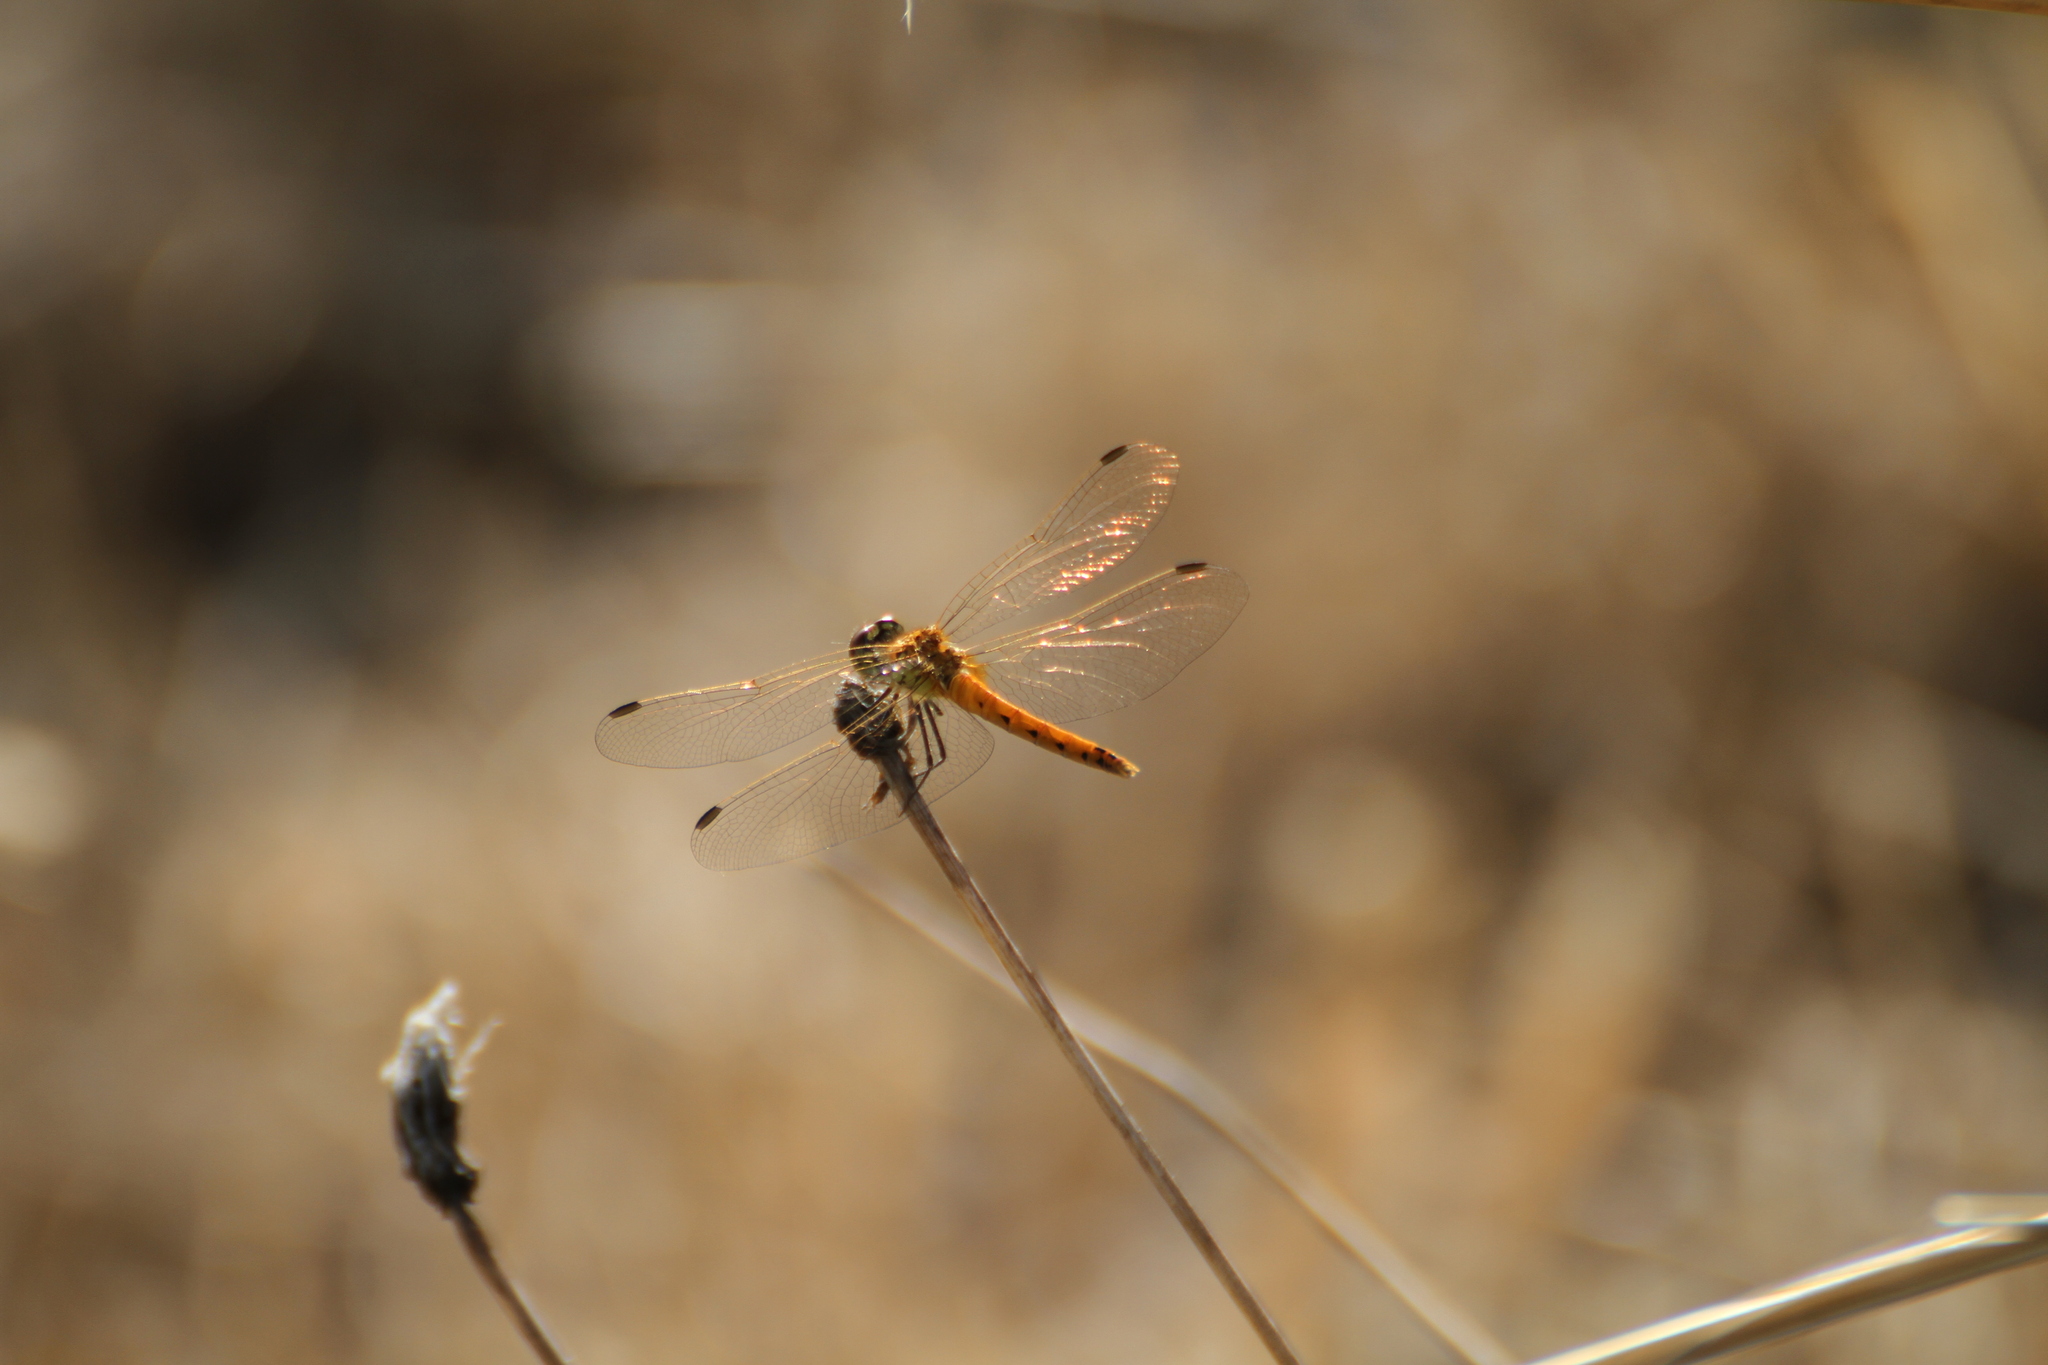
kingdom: Animalia
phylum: Arthropoda
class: Insecta
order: Odonata
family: Libellulidae
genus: Sympetrum
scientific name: Sympetrum depressiusculum
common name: Spotted darter
